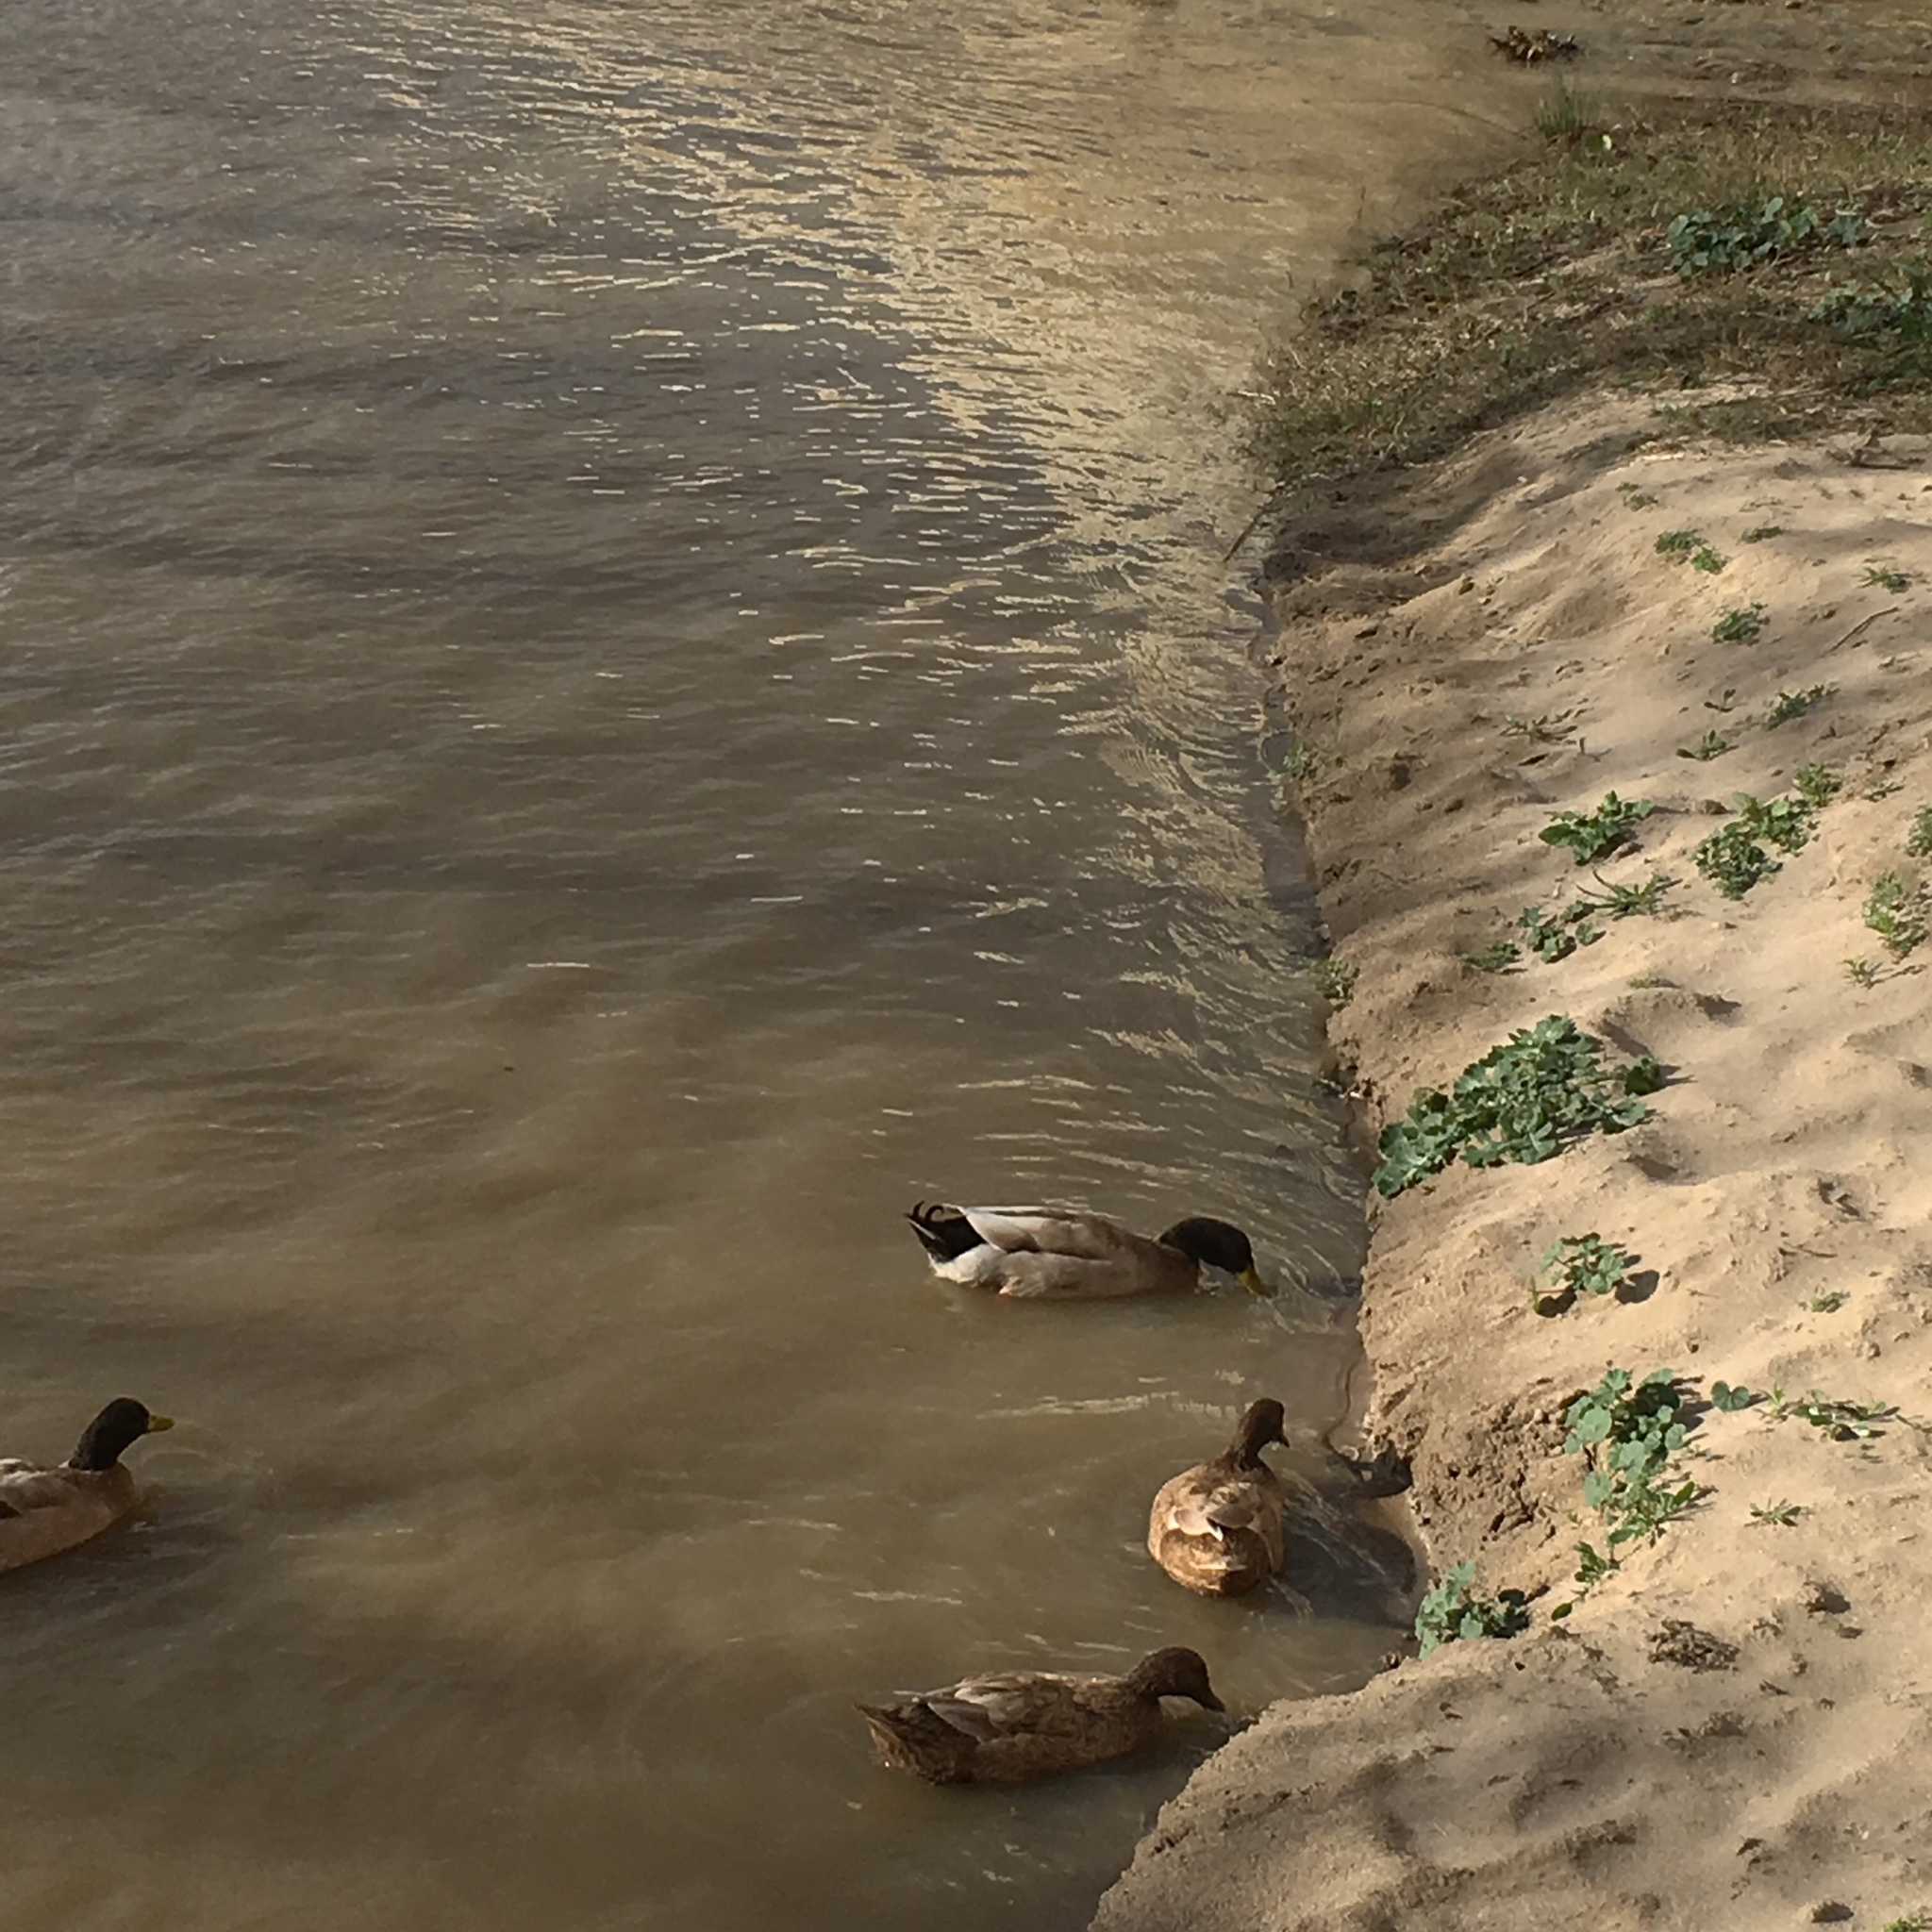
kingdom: Animalia
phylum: Chordata
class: Aves
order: Anseriformes
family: Anatidae
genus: Anas
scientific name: Anas platyrhynchos
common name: Mallard
